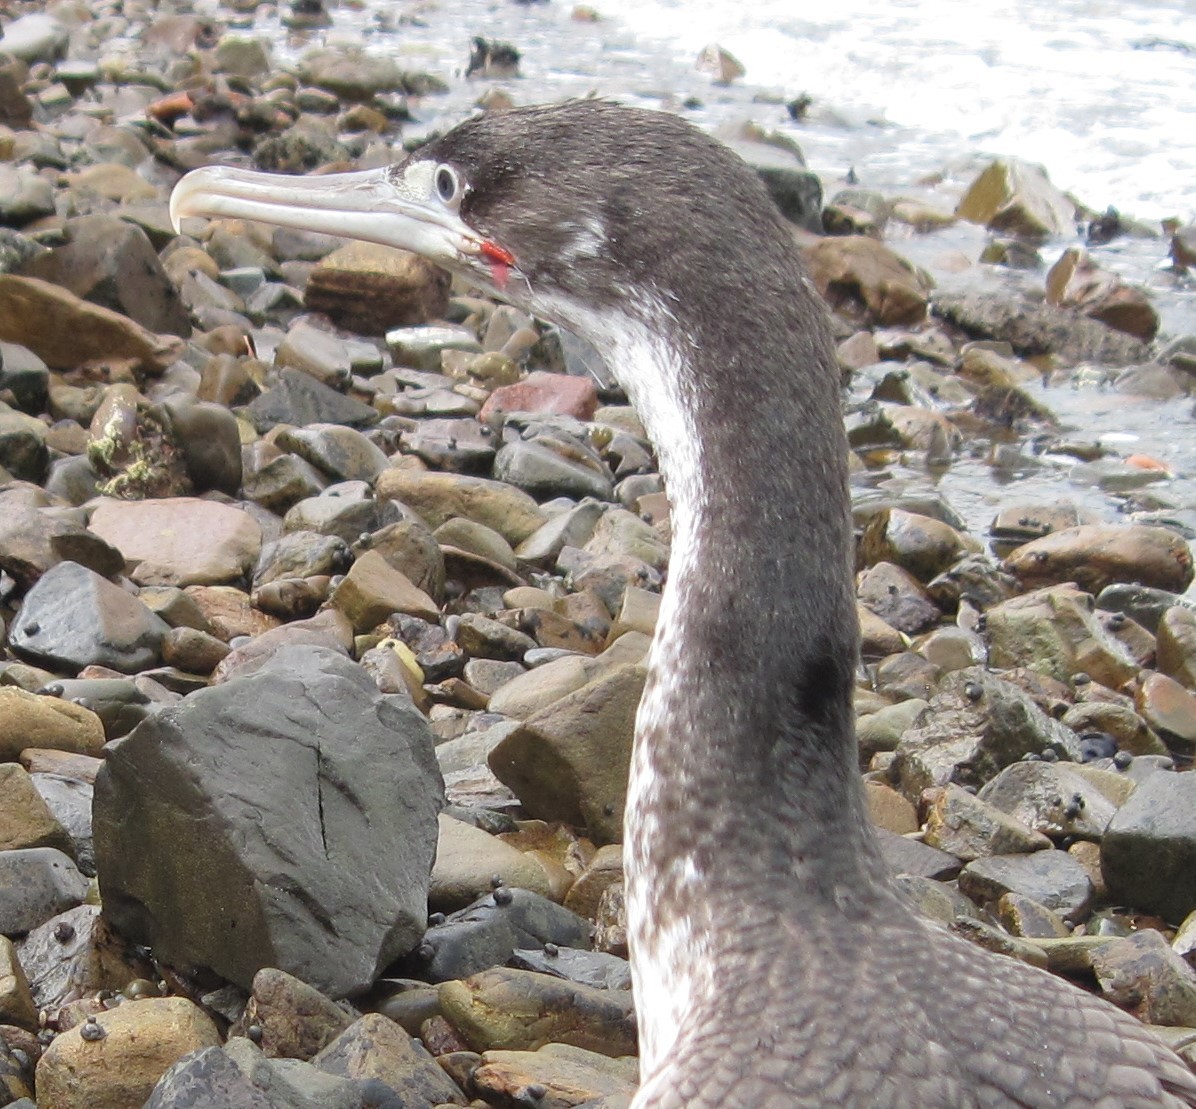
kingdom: Animalia
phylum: Chordata
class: Aves
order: Suliformes
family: Phalacrocoracidae
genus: Phalacrocorax
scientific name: Phalacrocorax varius
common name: Pied cormorant
